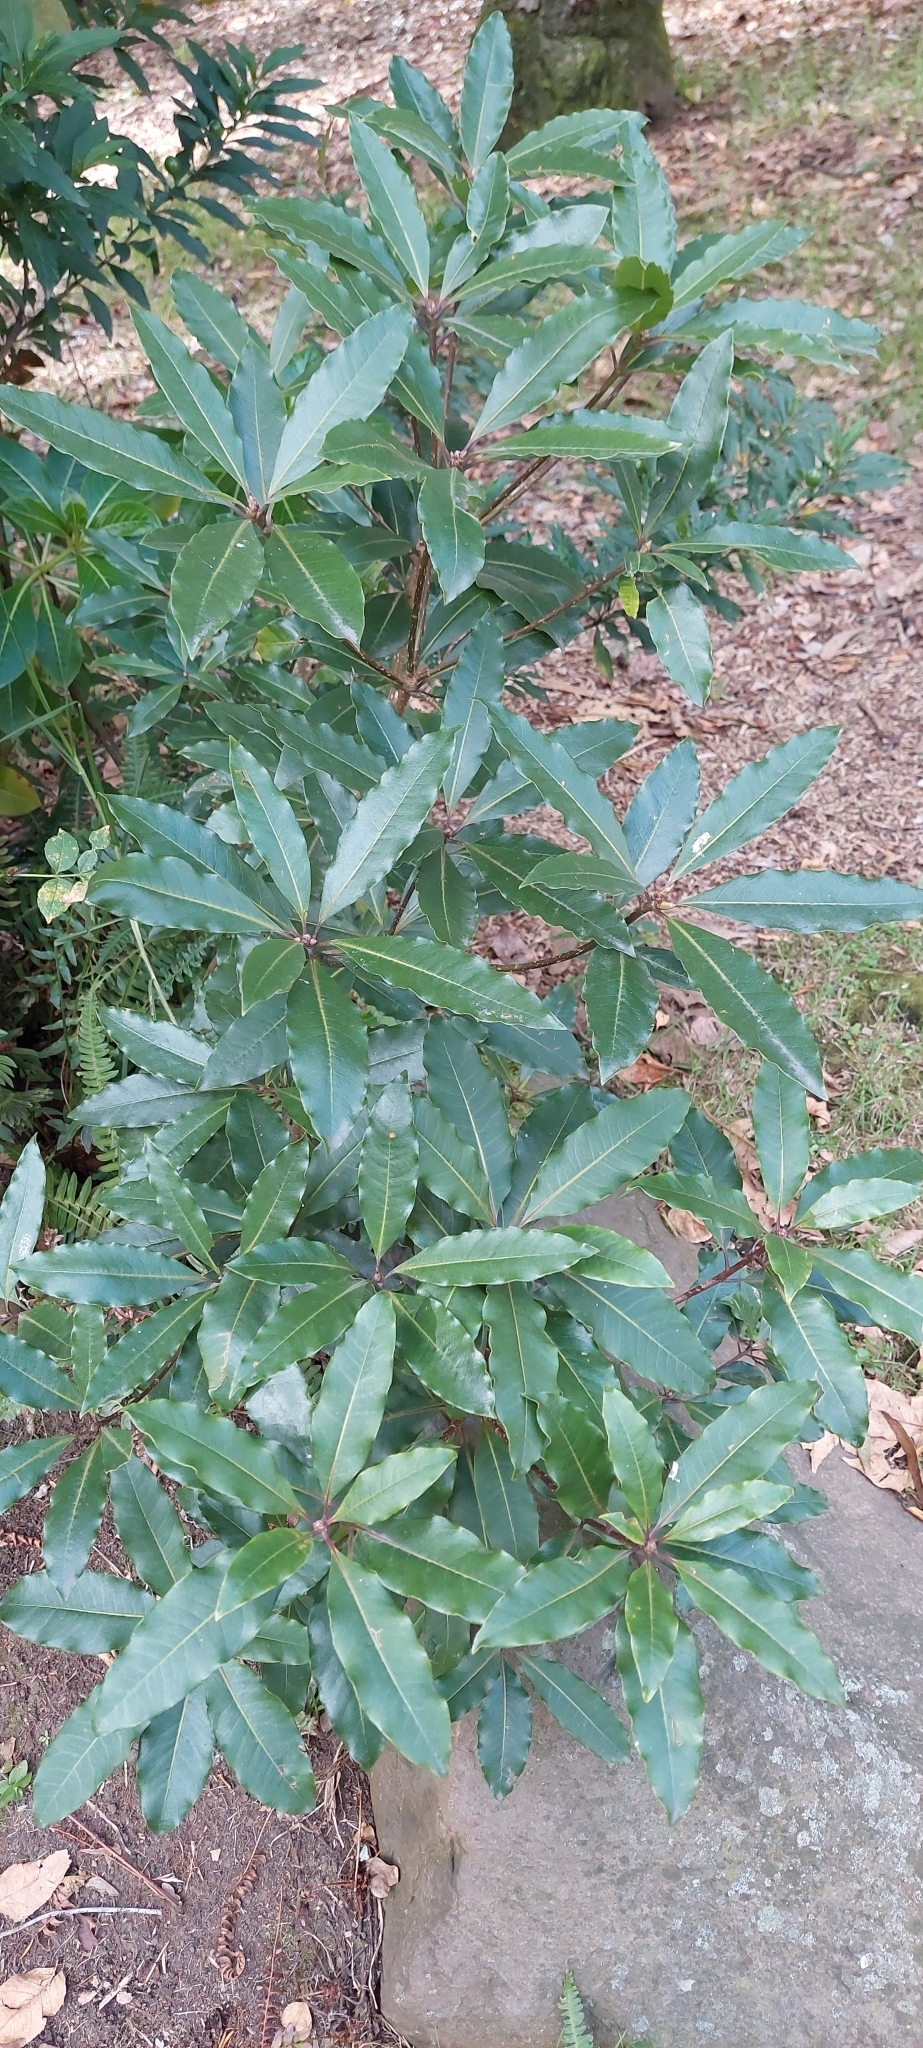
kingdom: Plantae
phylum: Tracheophyta
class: Magnoliopsida
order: Apiales
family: Pittosporaceae
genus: Pittosporum
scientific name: Pittosporum undulatum
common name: Australian cheesewood
